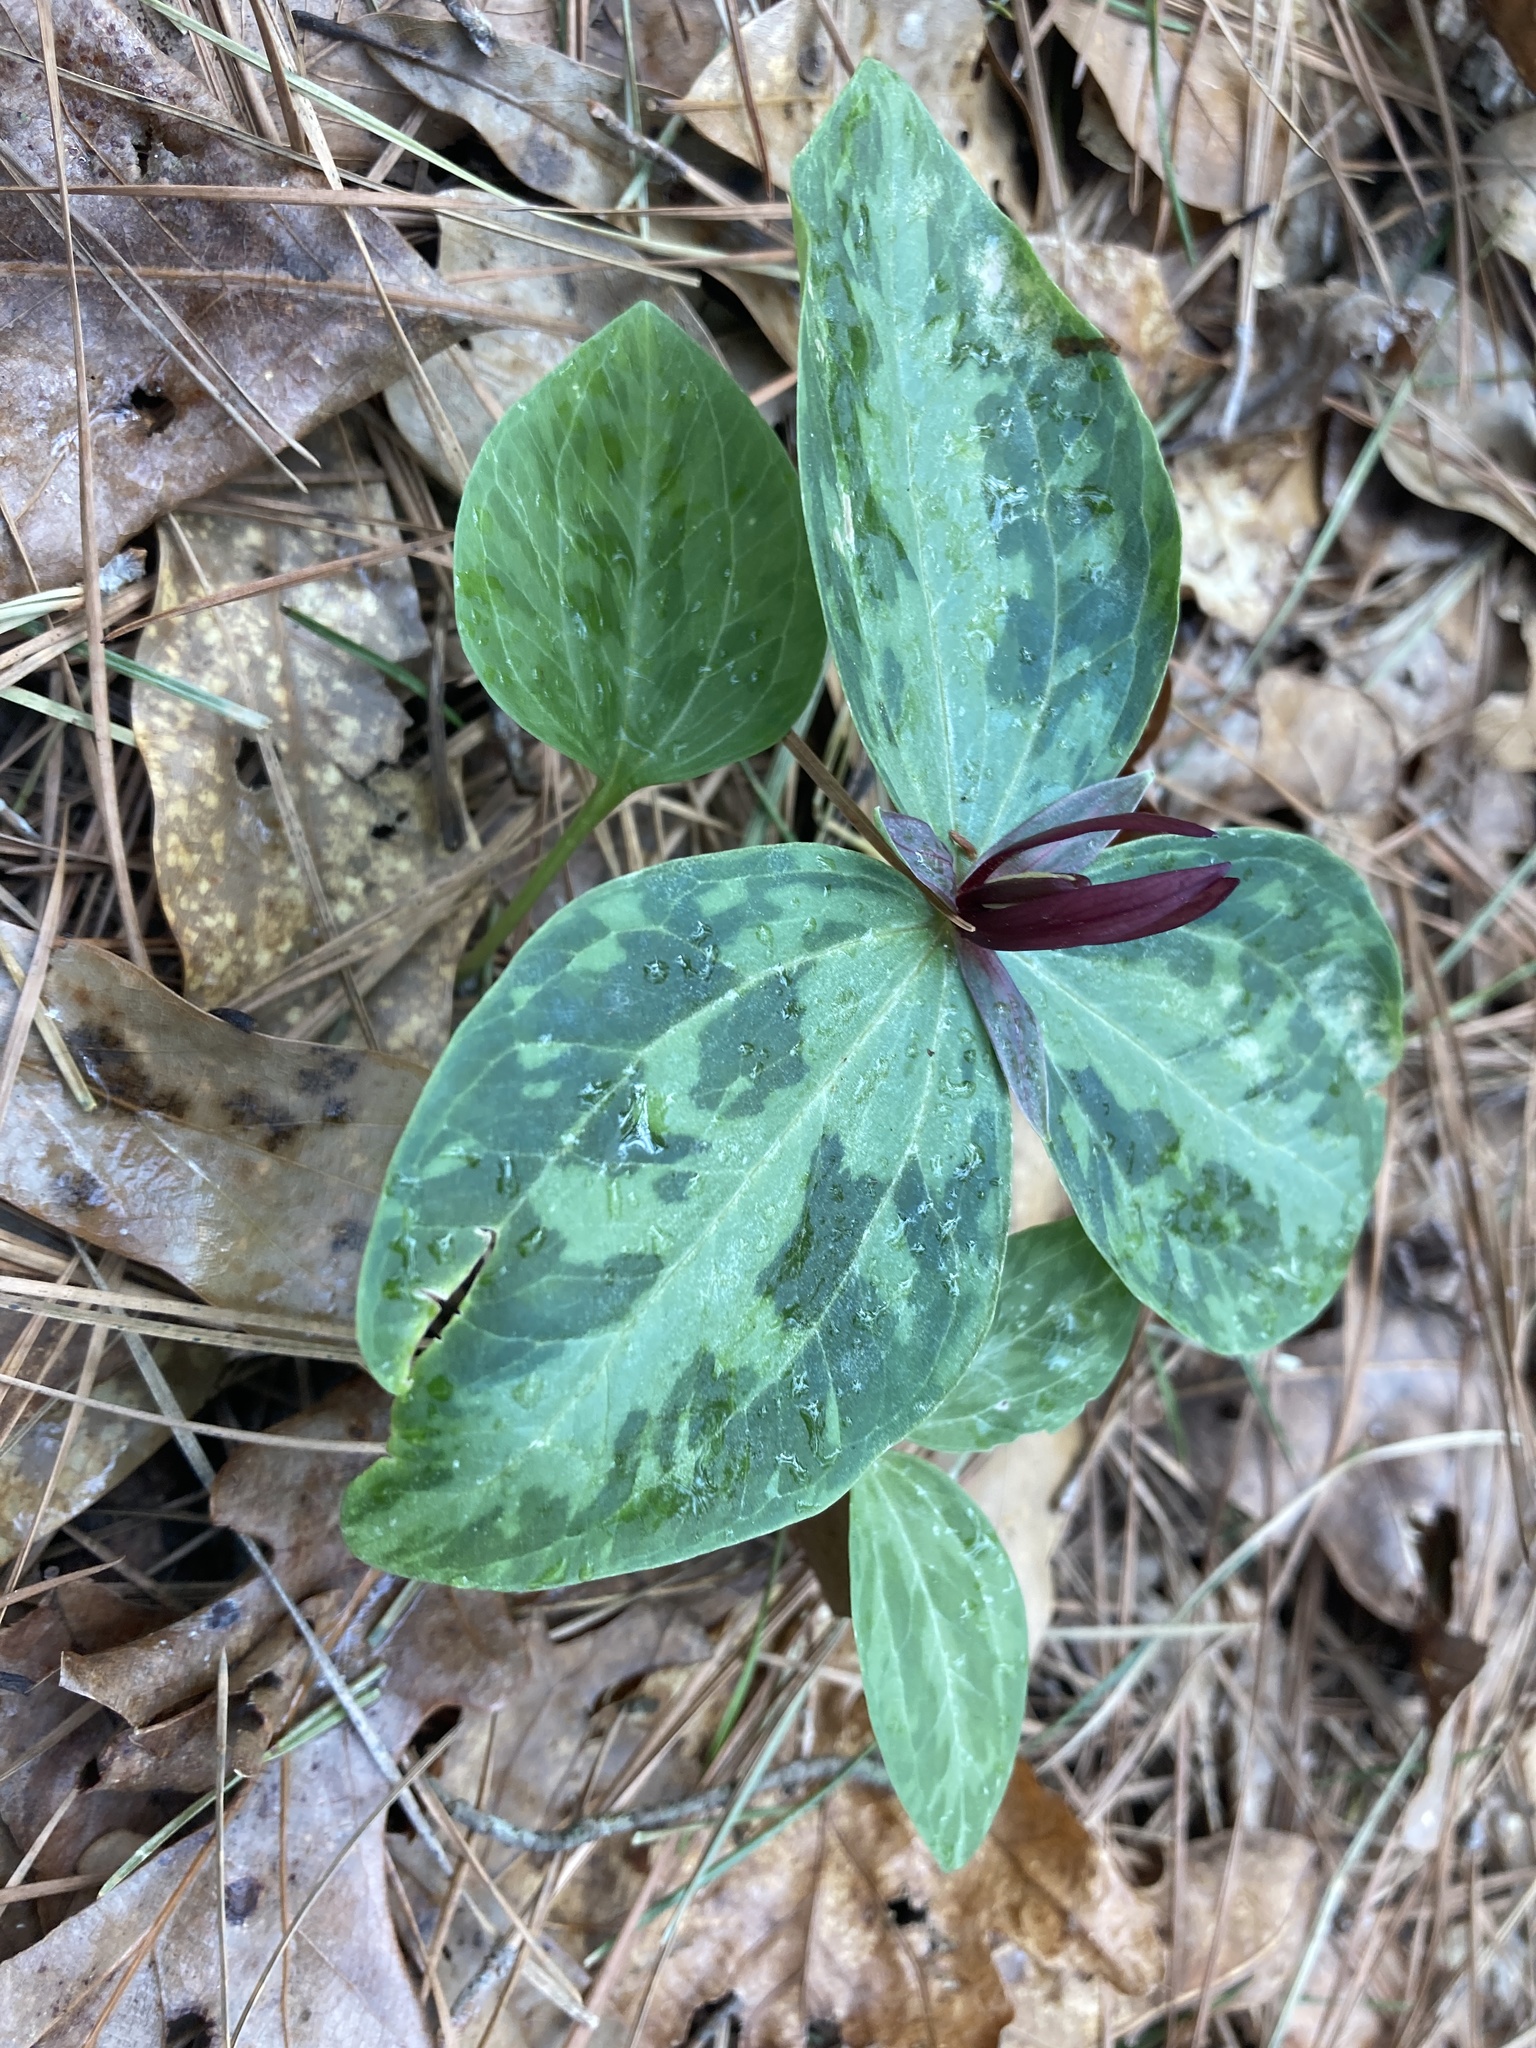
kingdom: Plantae
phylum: Tracheophyta
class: Liliopsida
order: Liliales
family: Melanthiaceae
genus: Trillium
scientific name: Trillium foetidissimum
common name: Mississippi river trillium
